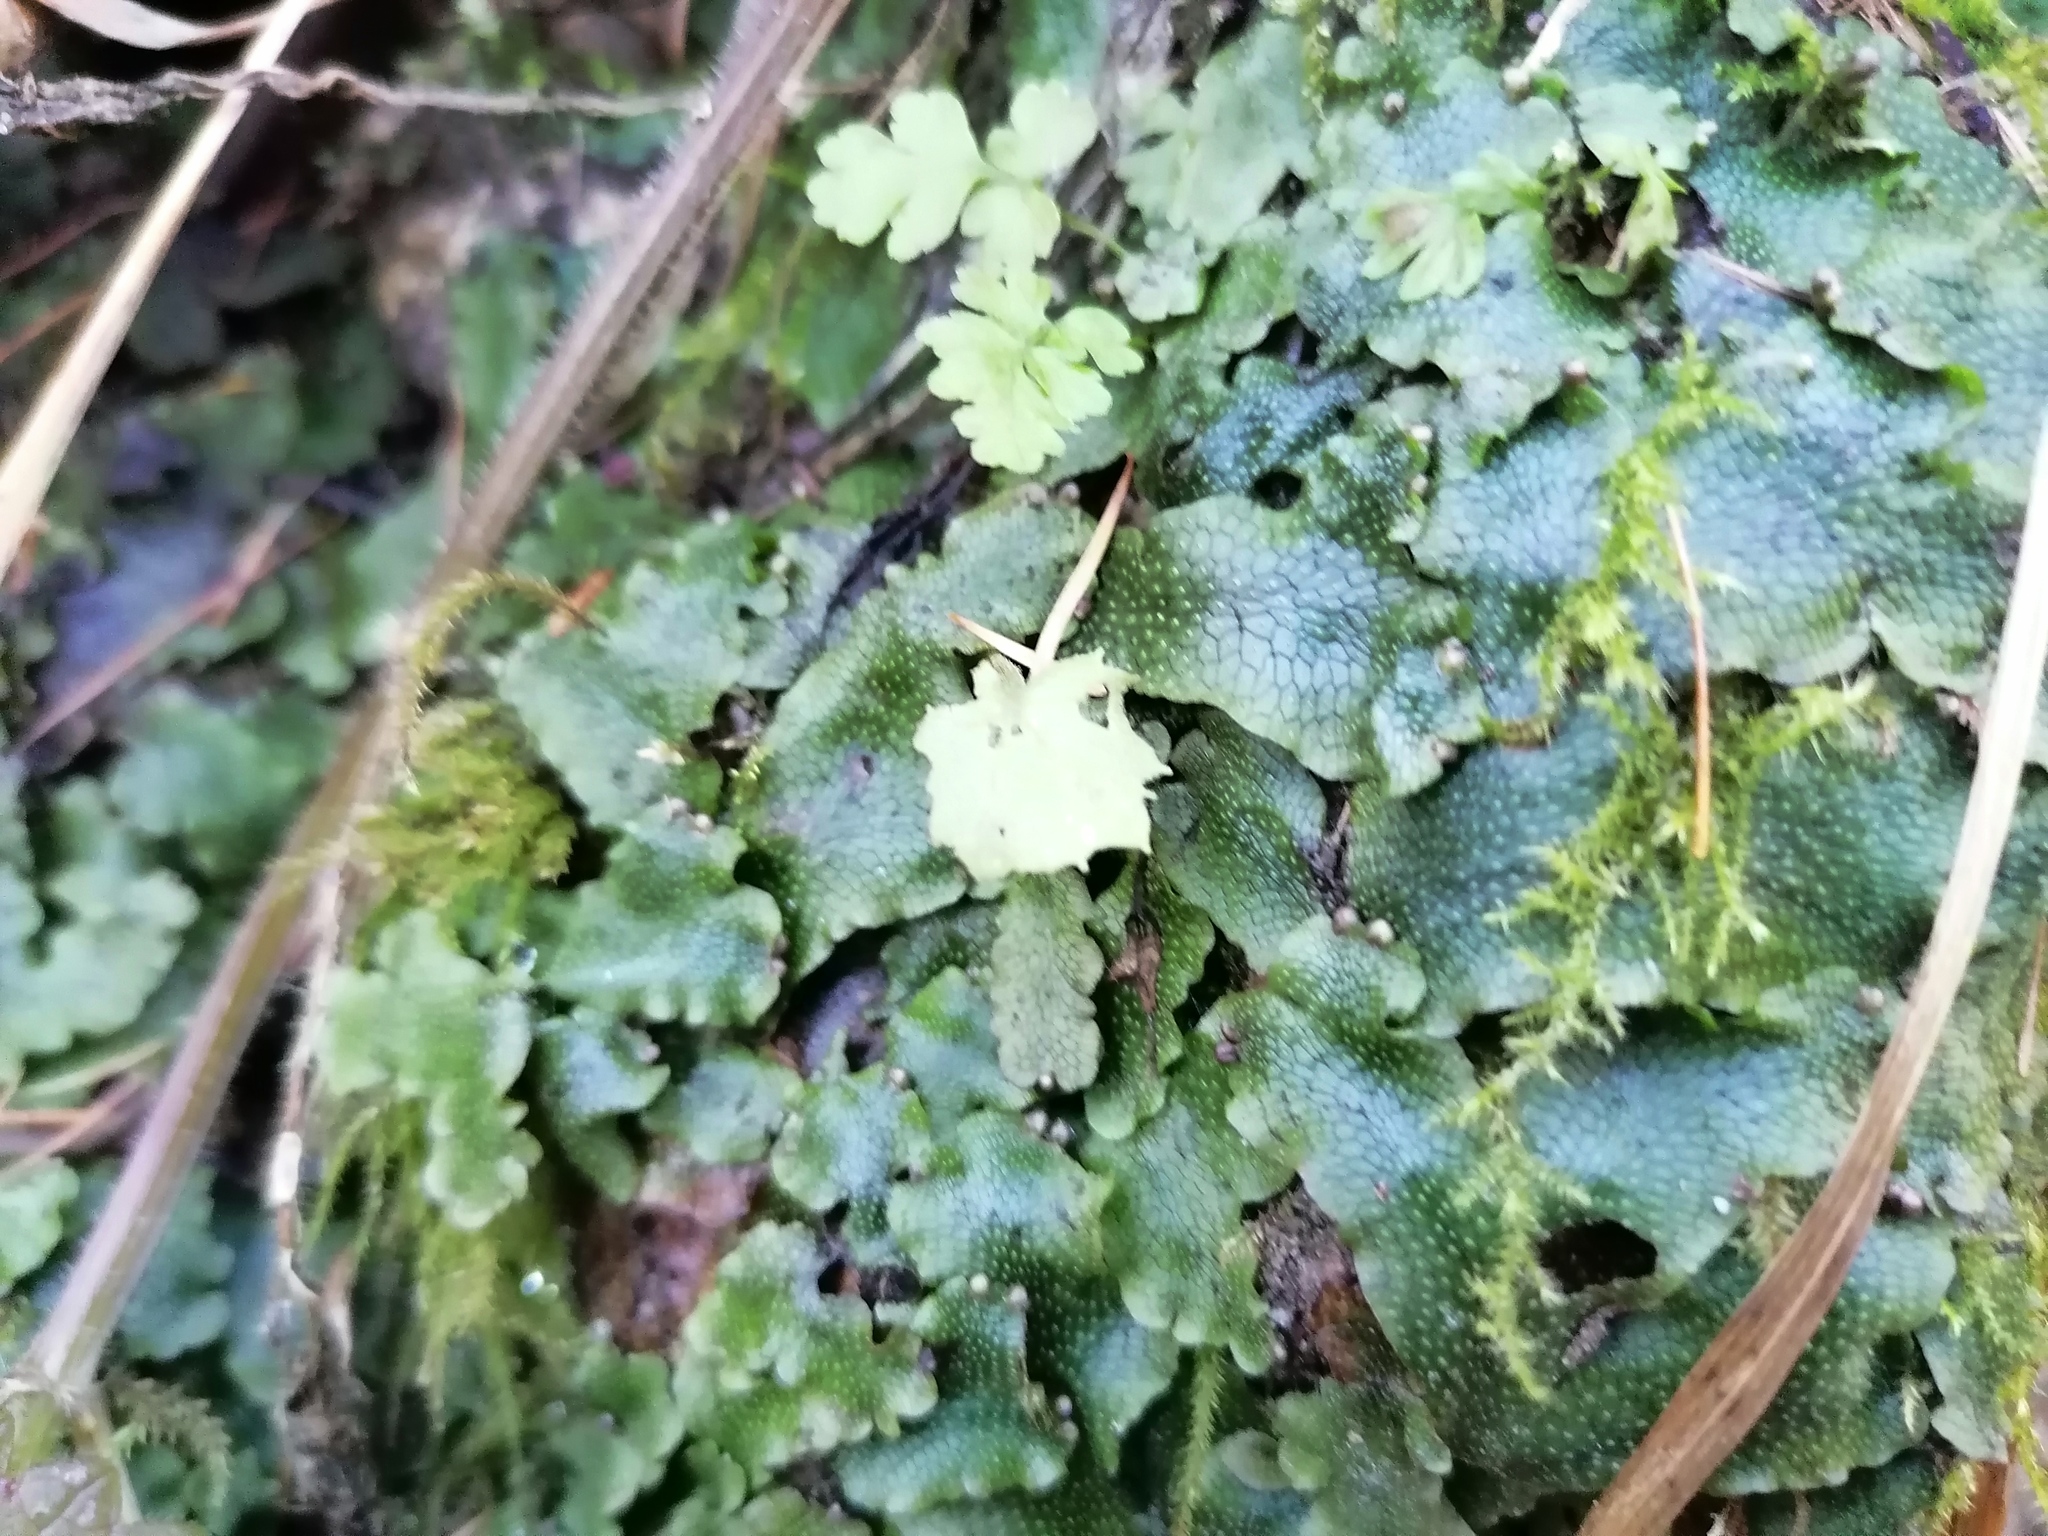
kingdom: Plantae
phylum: Marchantiophyta
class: Marchantiopsida
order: Marchantiales
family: Conocephalaceae
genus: Conocephalum
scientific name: Conocephalum conicum
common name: Great scented liverwort
